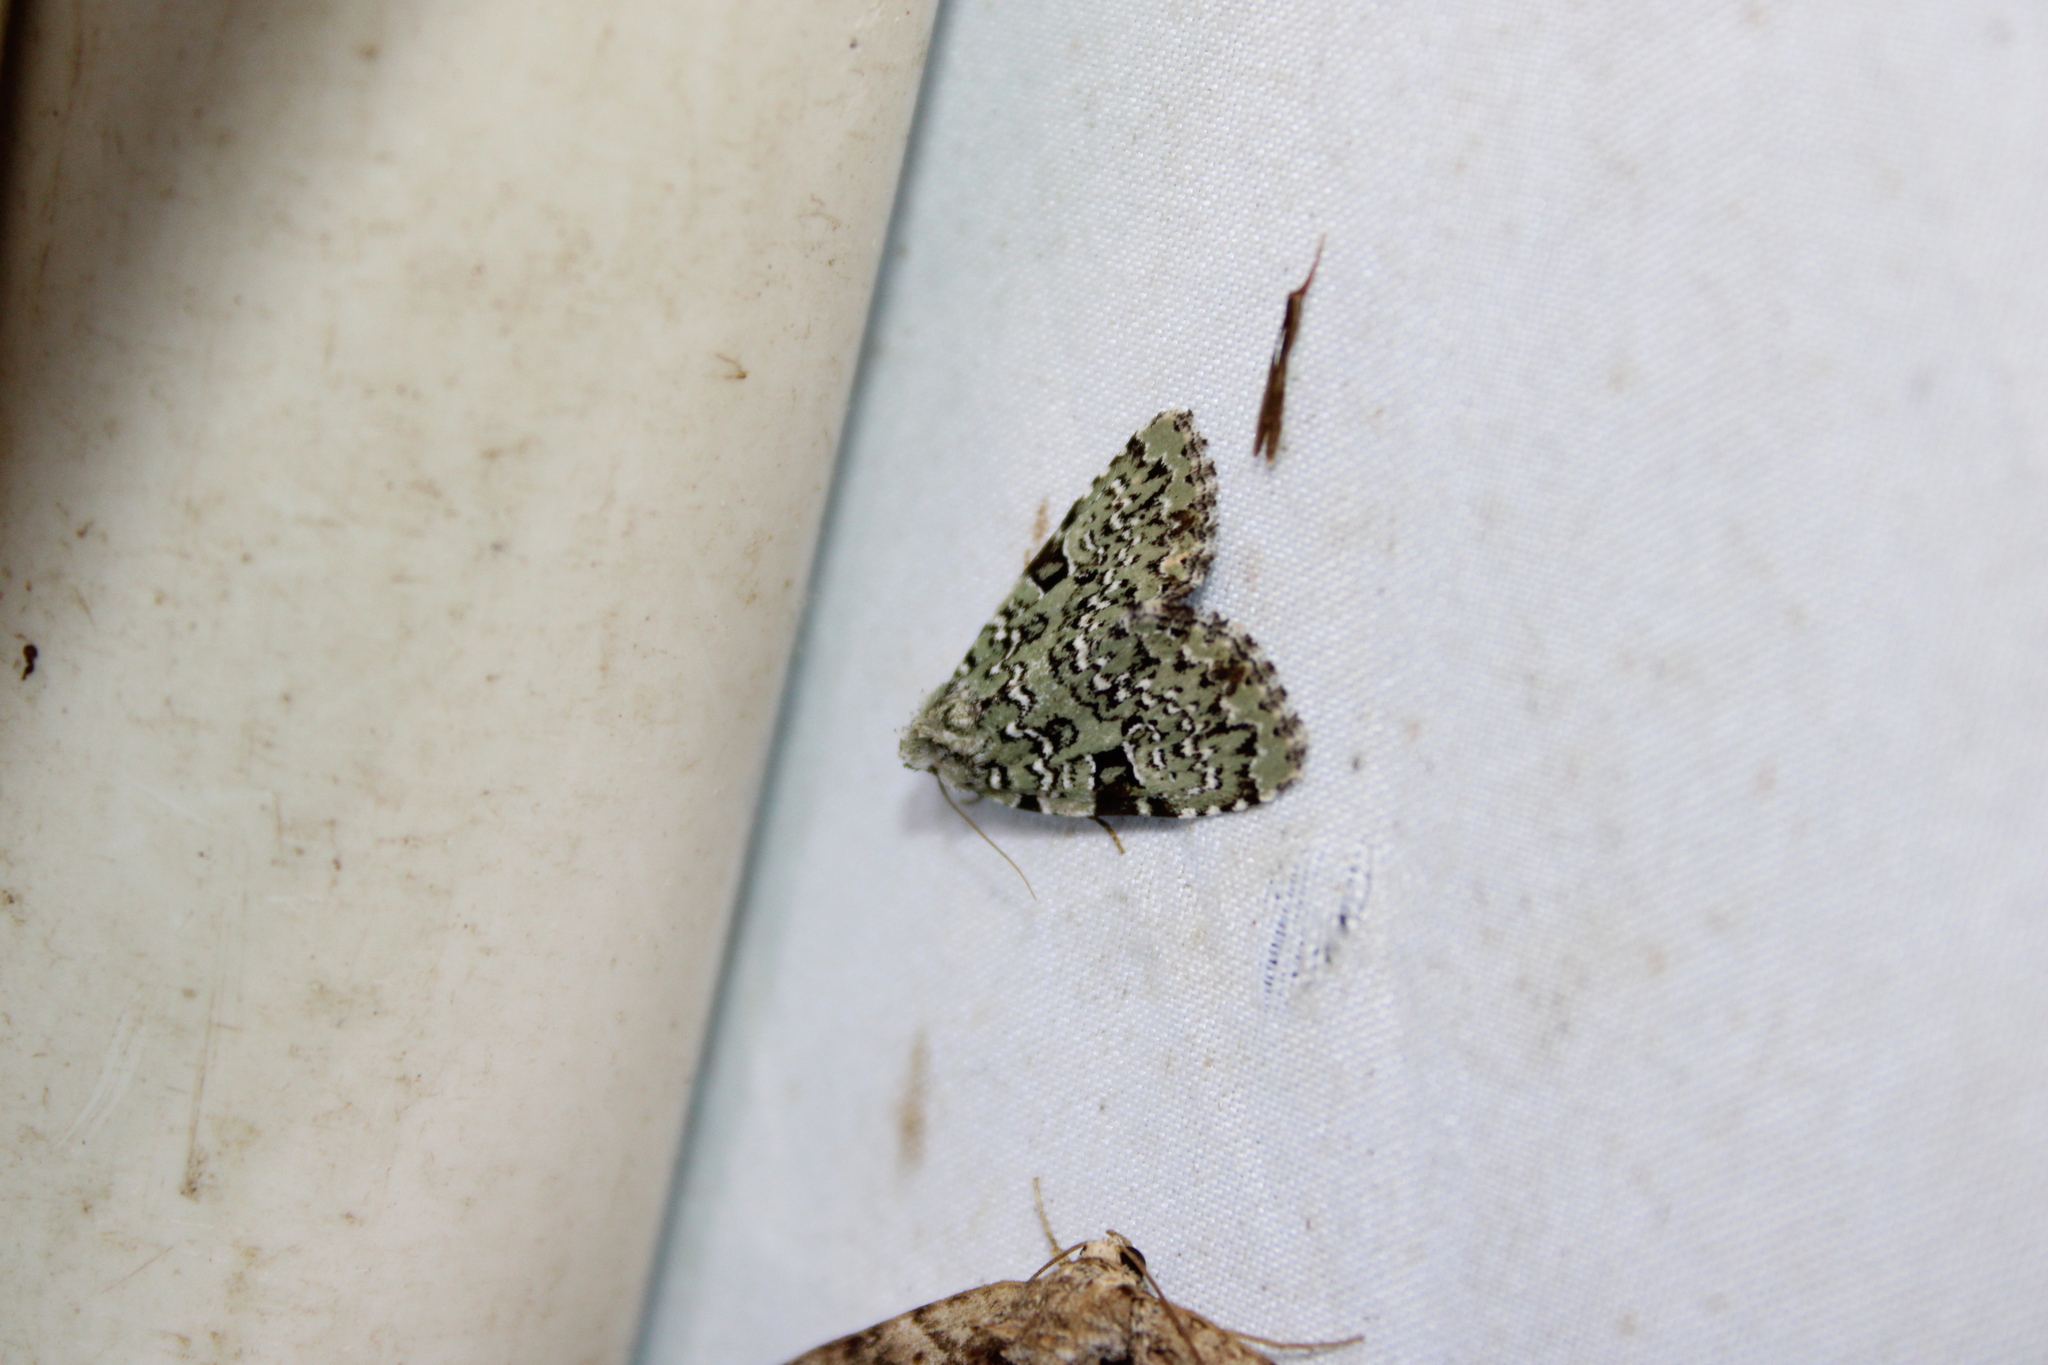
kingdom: Animalia
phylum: Arthropoda
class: Insecta
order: Lepidoptera
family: Noctuidae
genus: Leuconycta
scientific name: Leuconycta diphteroides
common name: Green leuconycta moth
